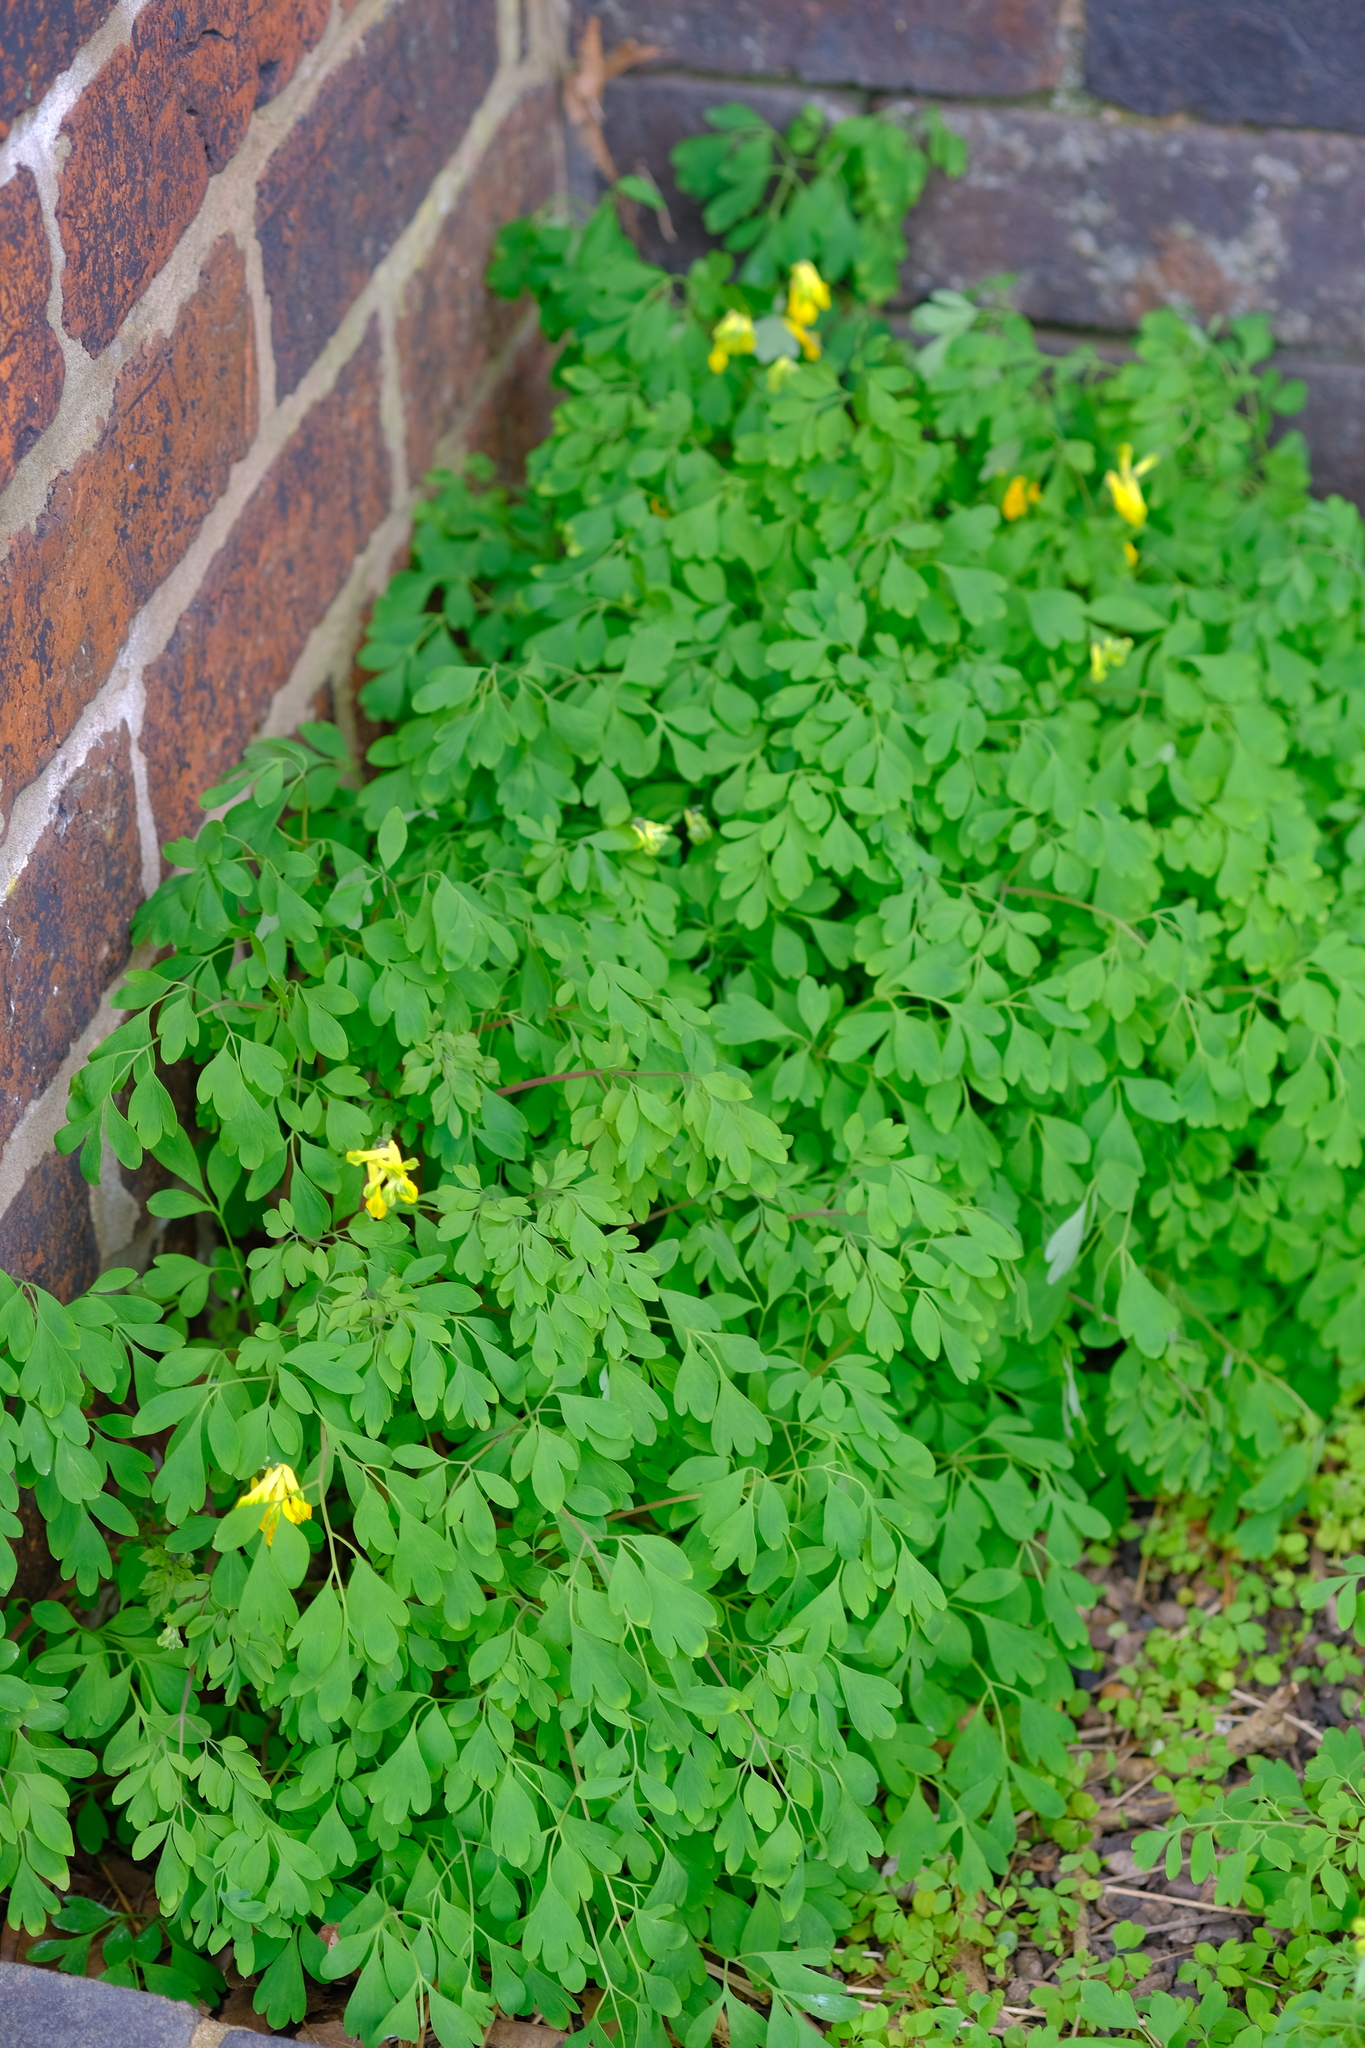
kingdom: Plantae
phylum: Tracheophyta
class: Magnoliopsida
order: Ranunculales
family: Papaveraceae
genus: Pseudofumaria
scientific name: Pseudofumaria lutea
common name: Yellow corydalis
